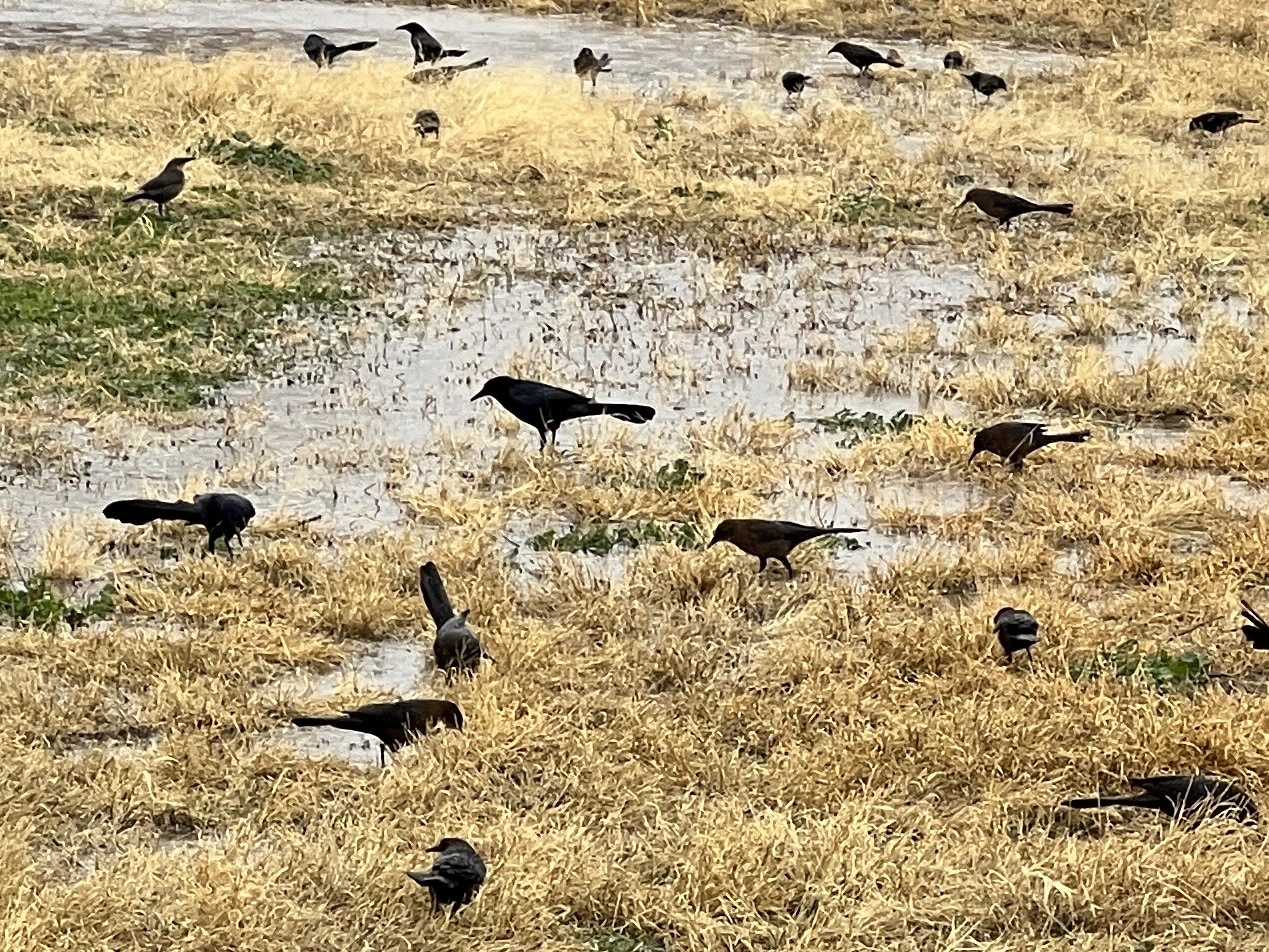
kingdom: Animalia
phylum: Chordata
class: Aves
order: Passeriformes
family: Icteridae
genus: Quiscalus
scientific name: Quiscalus mexicanus
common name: Great-tailed grackle
